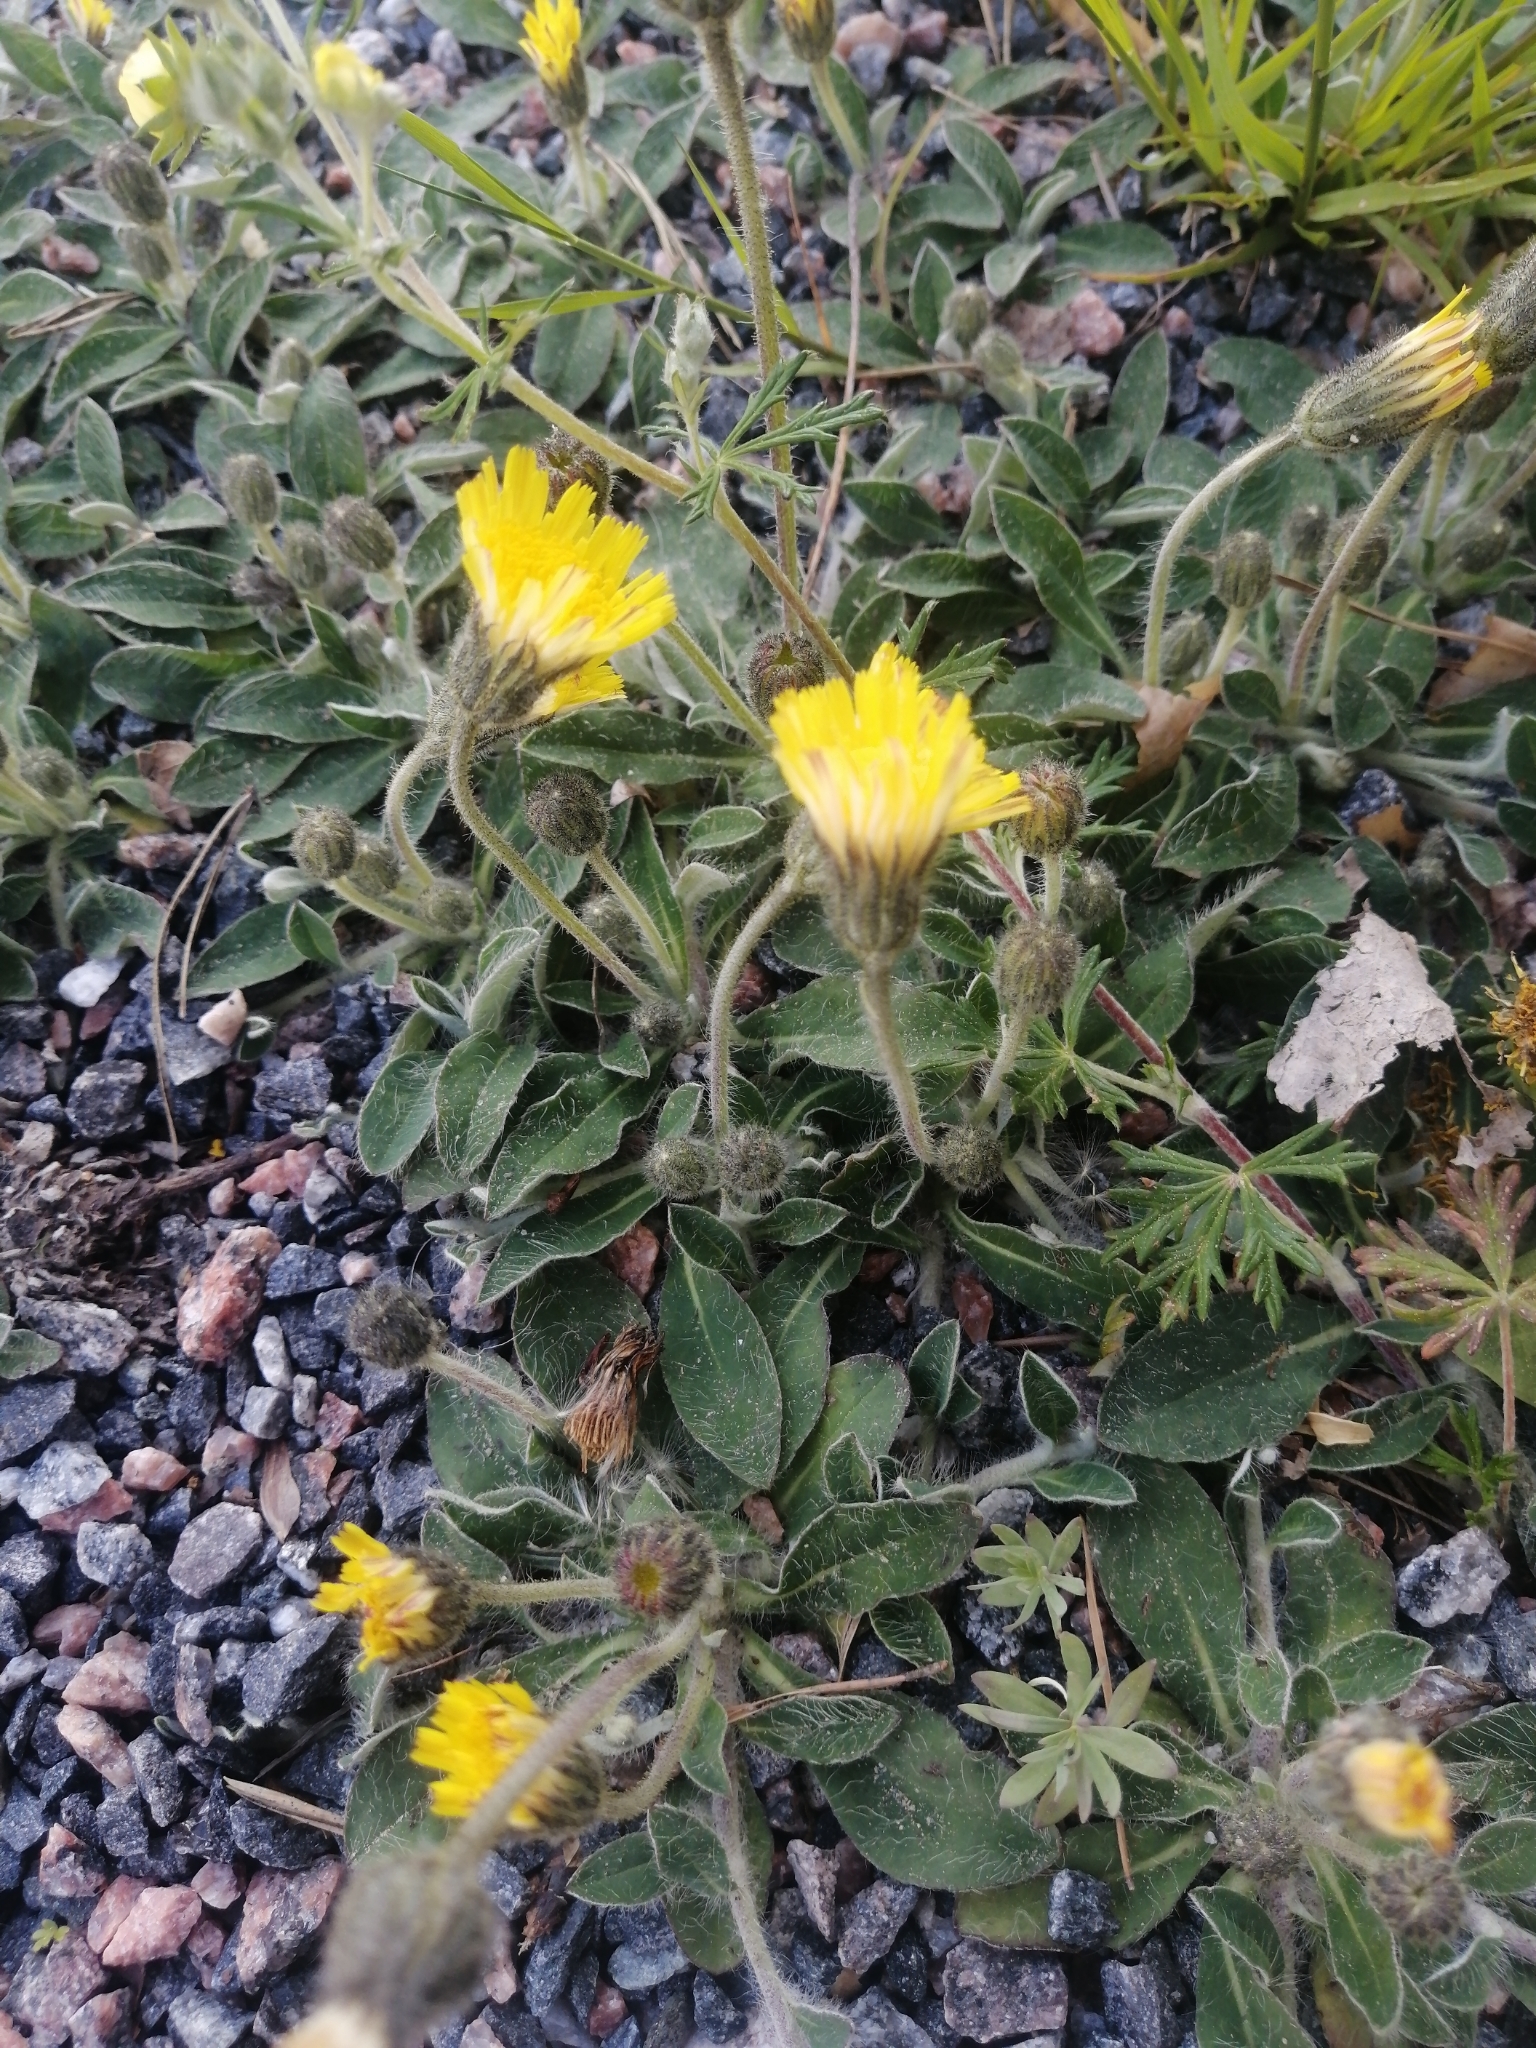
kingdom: Plantae
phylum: Tracheophyta
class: Magnoliopsida
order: Asterales
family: Asteraceae
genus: Pilosella
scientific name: Pilosella officinarum
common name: Mouse-ear hawkweed
